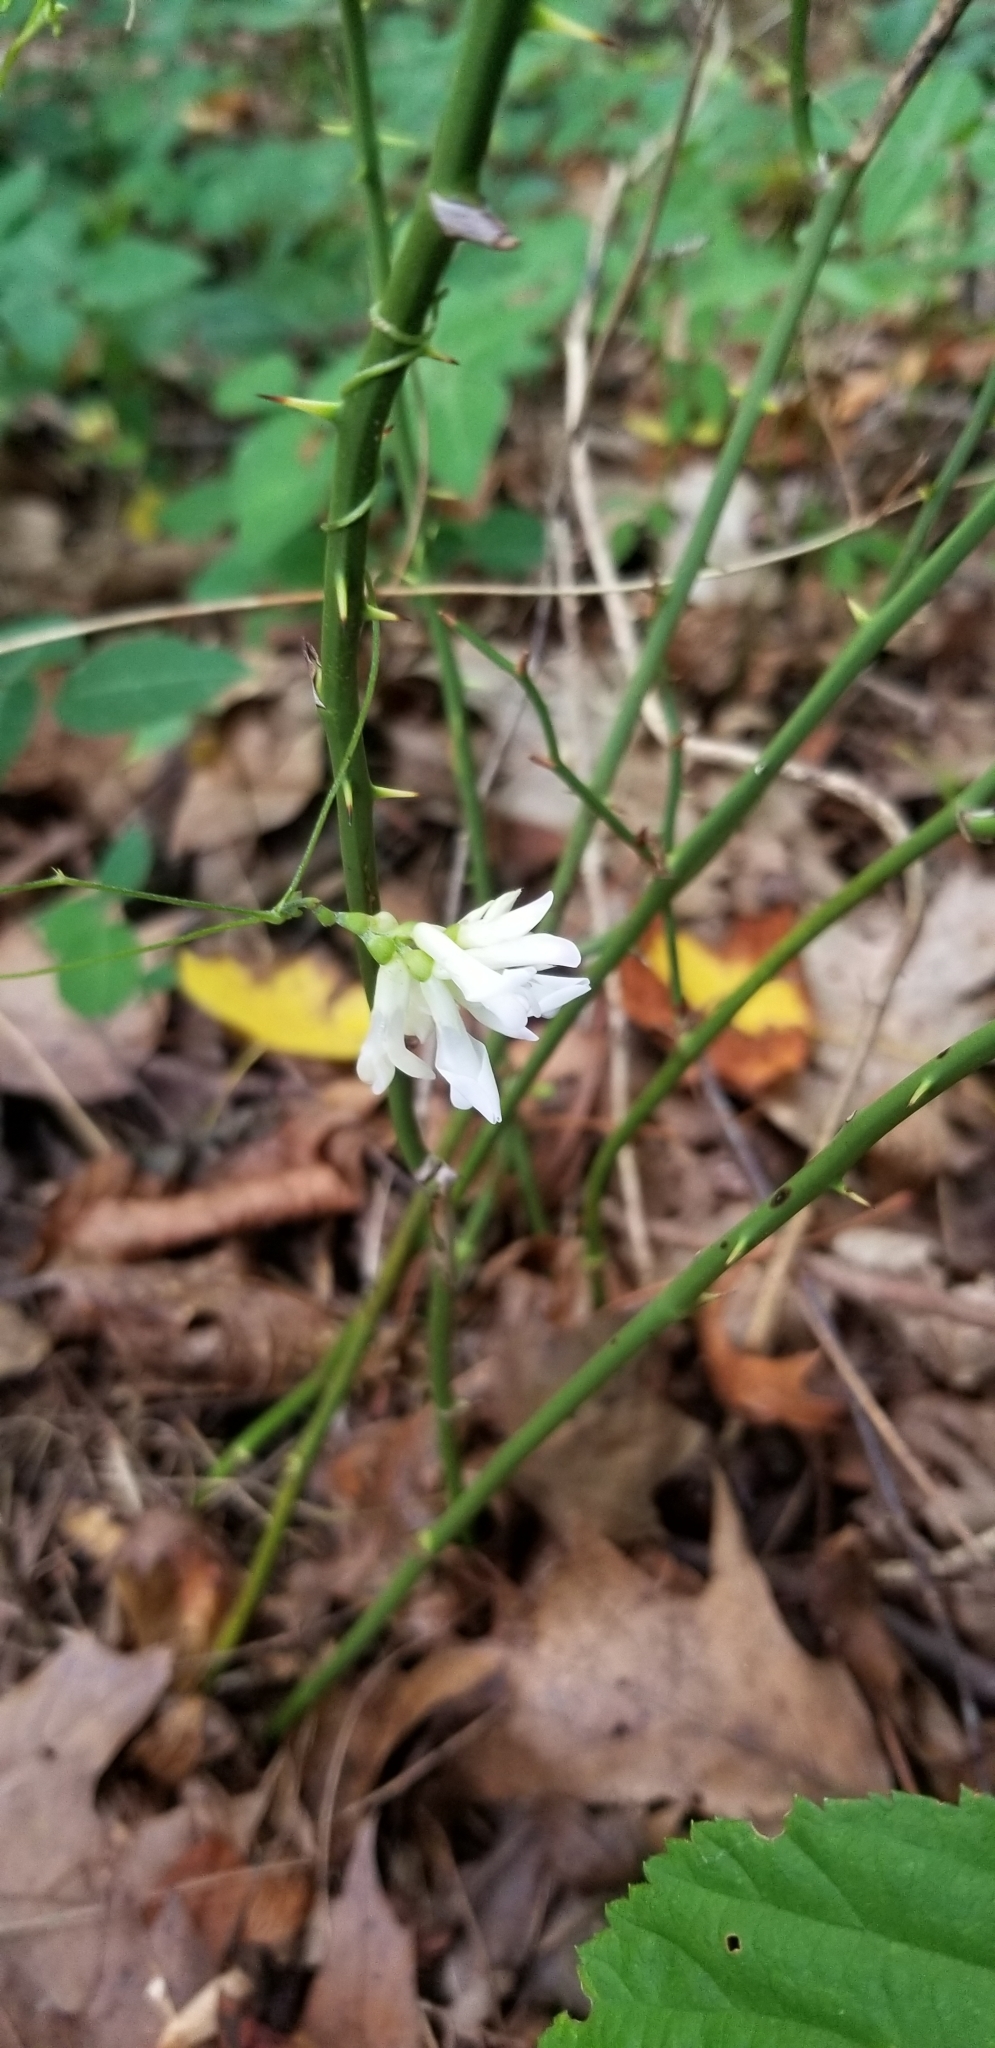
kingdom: Plantae
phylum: Tracheophyta
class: Magnoliopsida
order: Fabales
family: Fabaceae
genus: Amphicarpaea
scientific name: Amphicarpaea bracteata
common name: American hog peanut
